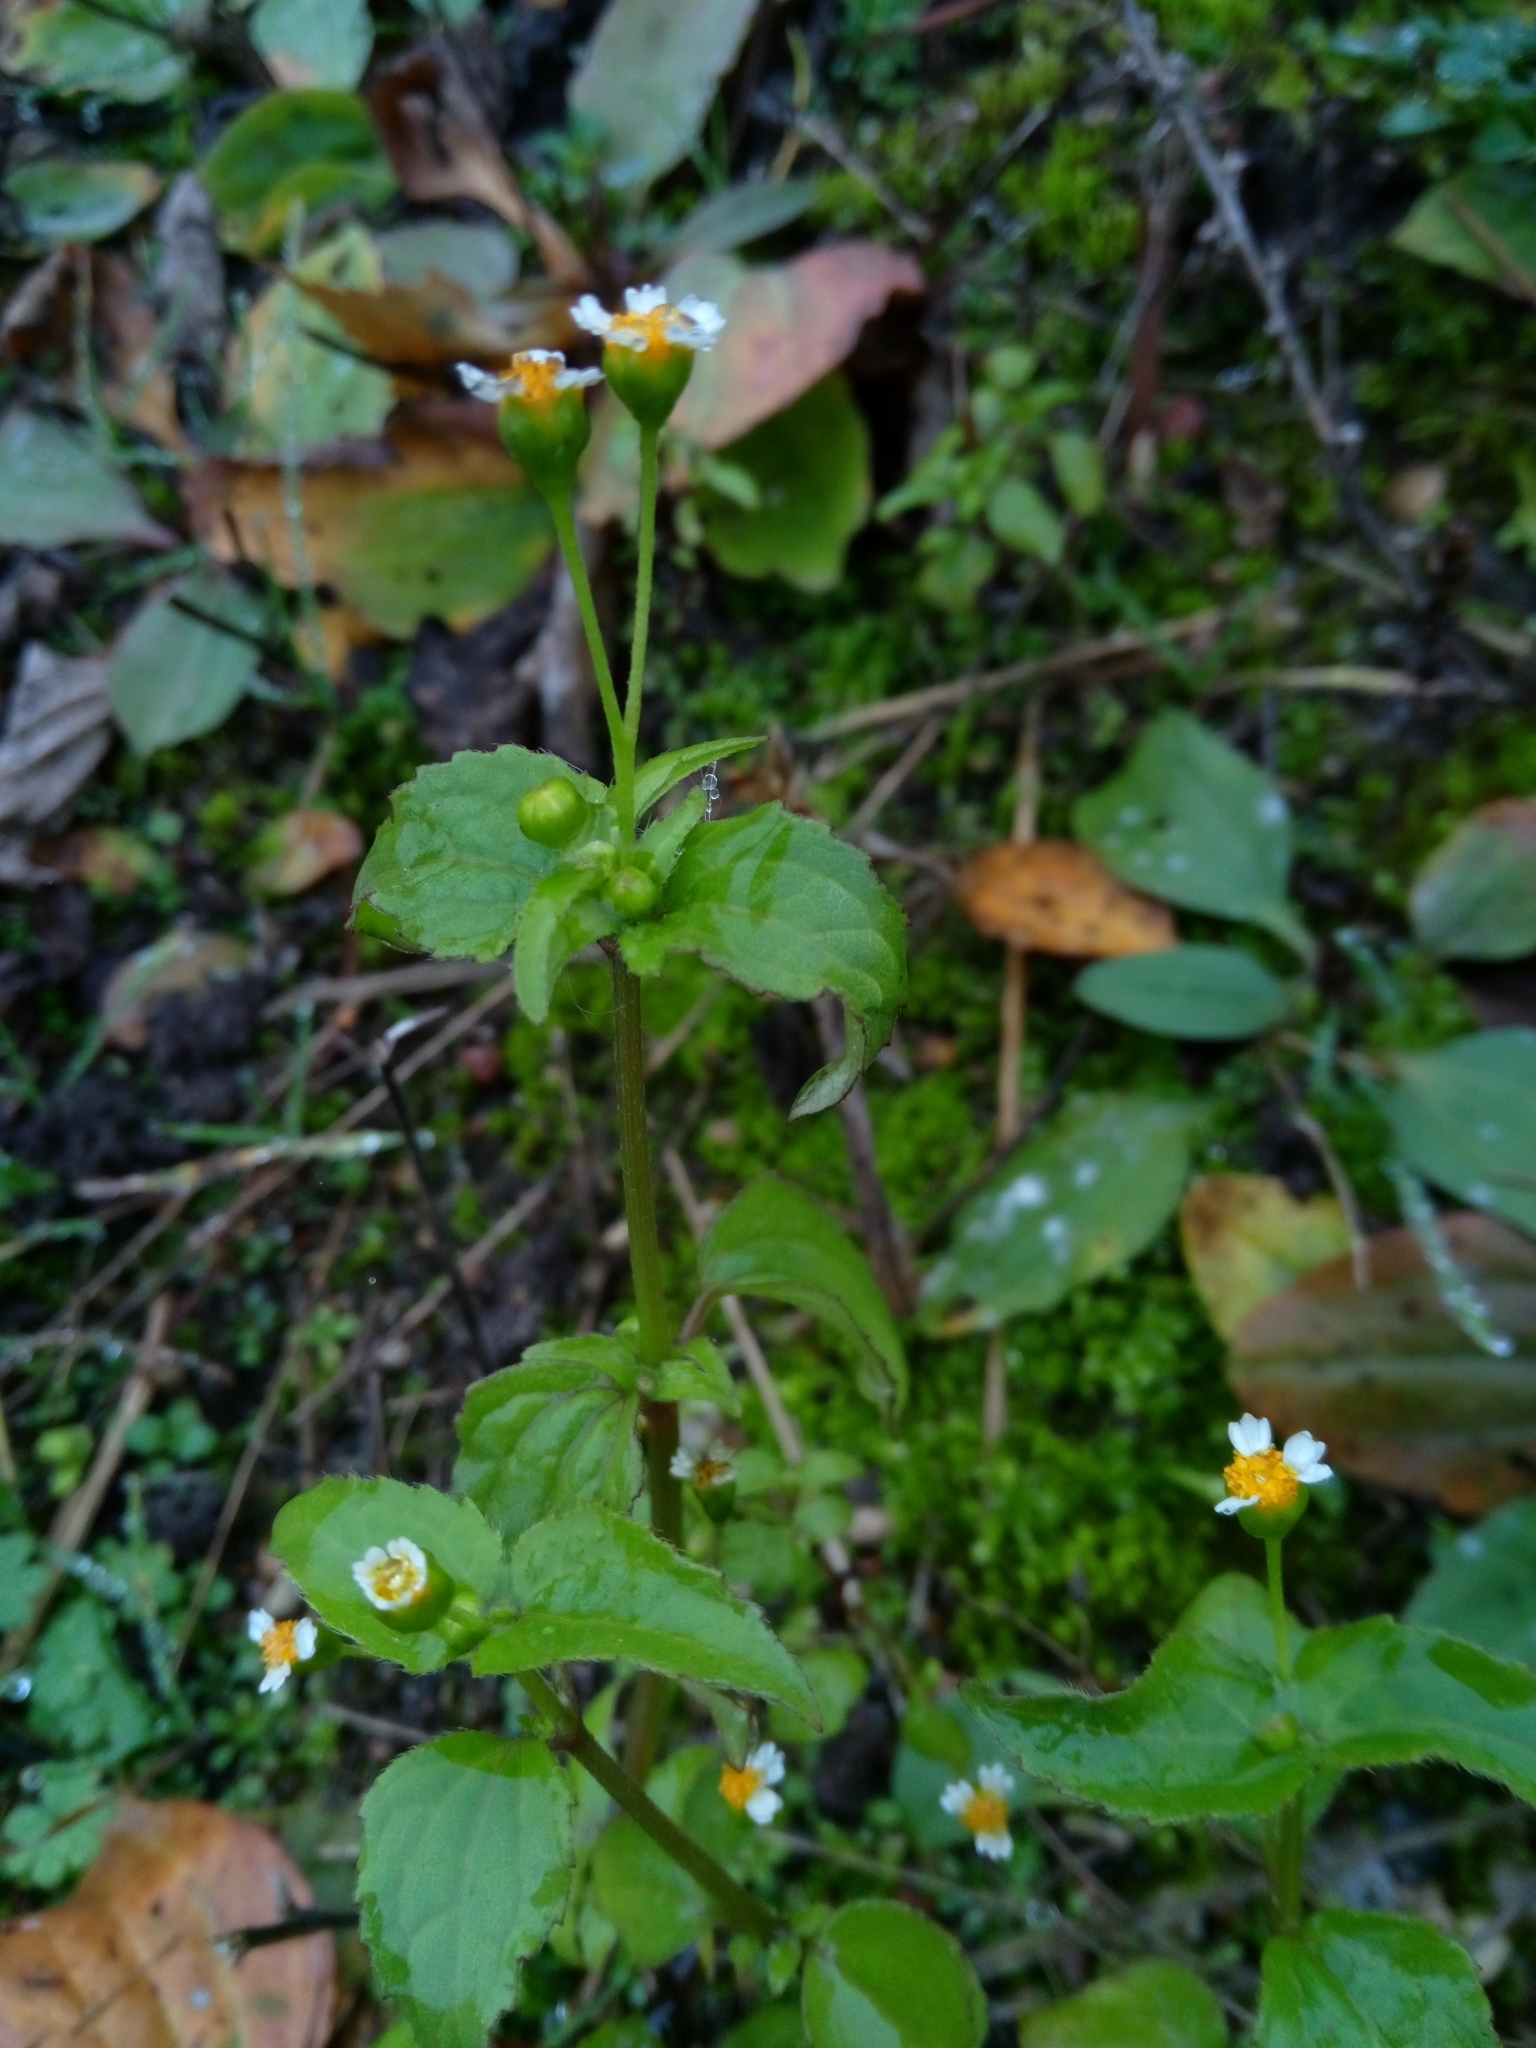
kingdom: Plantae
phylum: Tracheophyta
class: Magnoliopsida
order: Asterales
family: Asteraceae
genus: Galinsoga
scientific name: Galinsoga parviflora
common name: Gallant soldier
